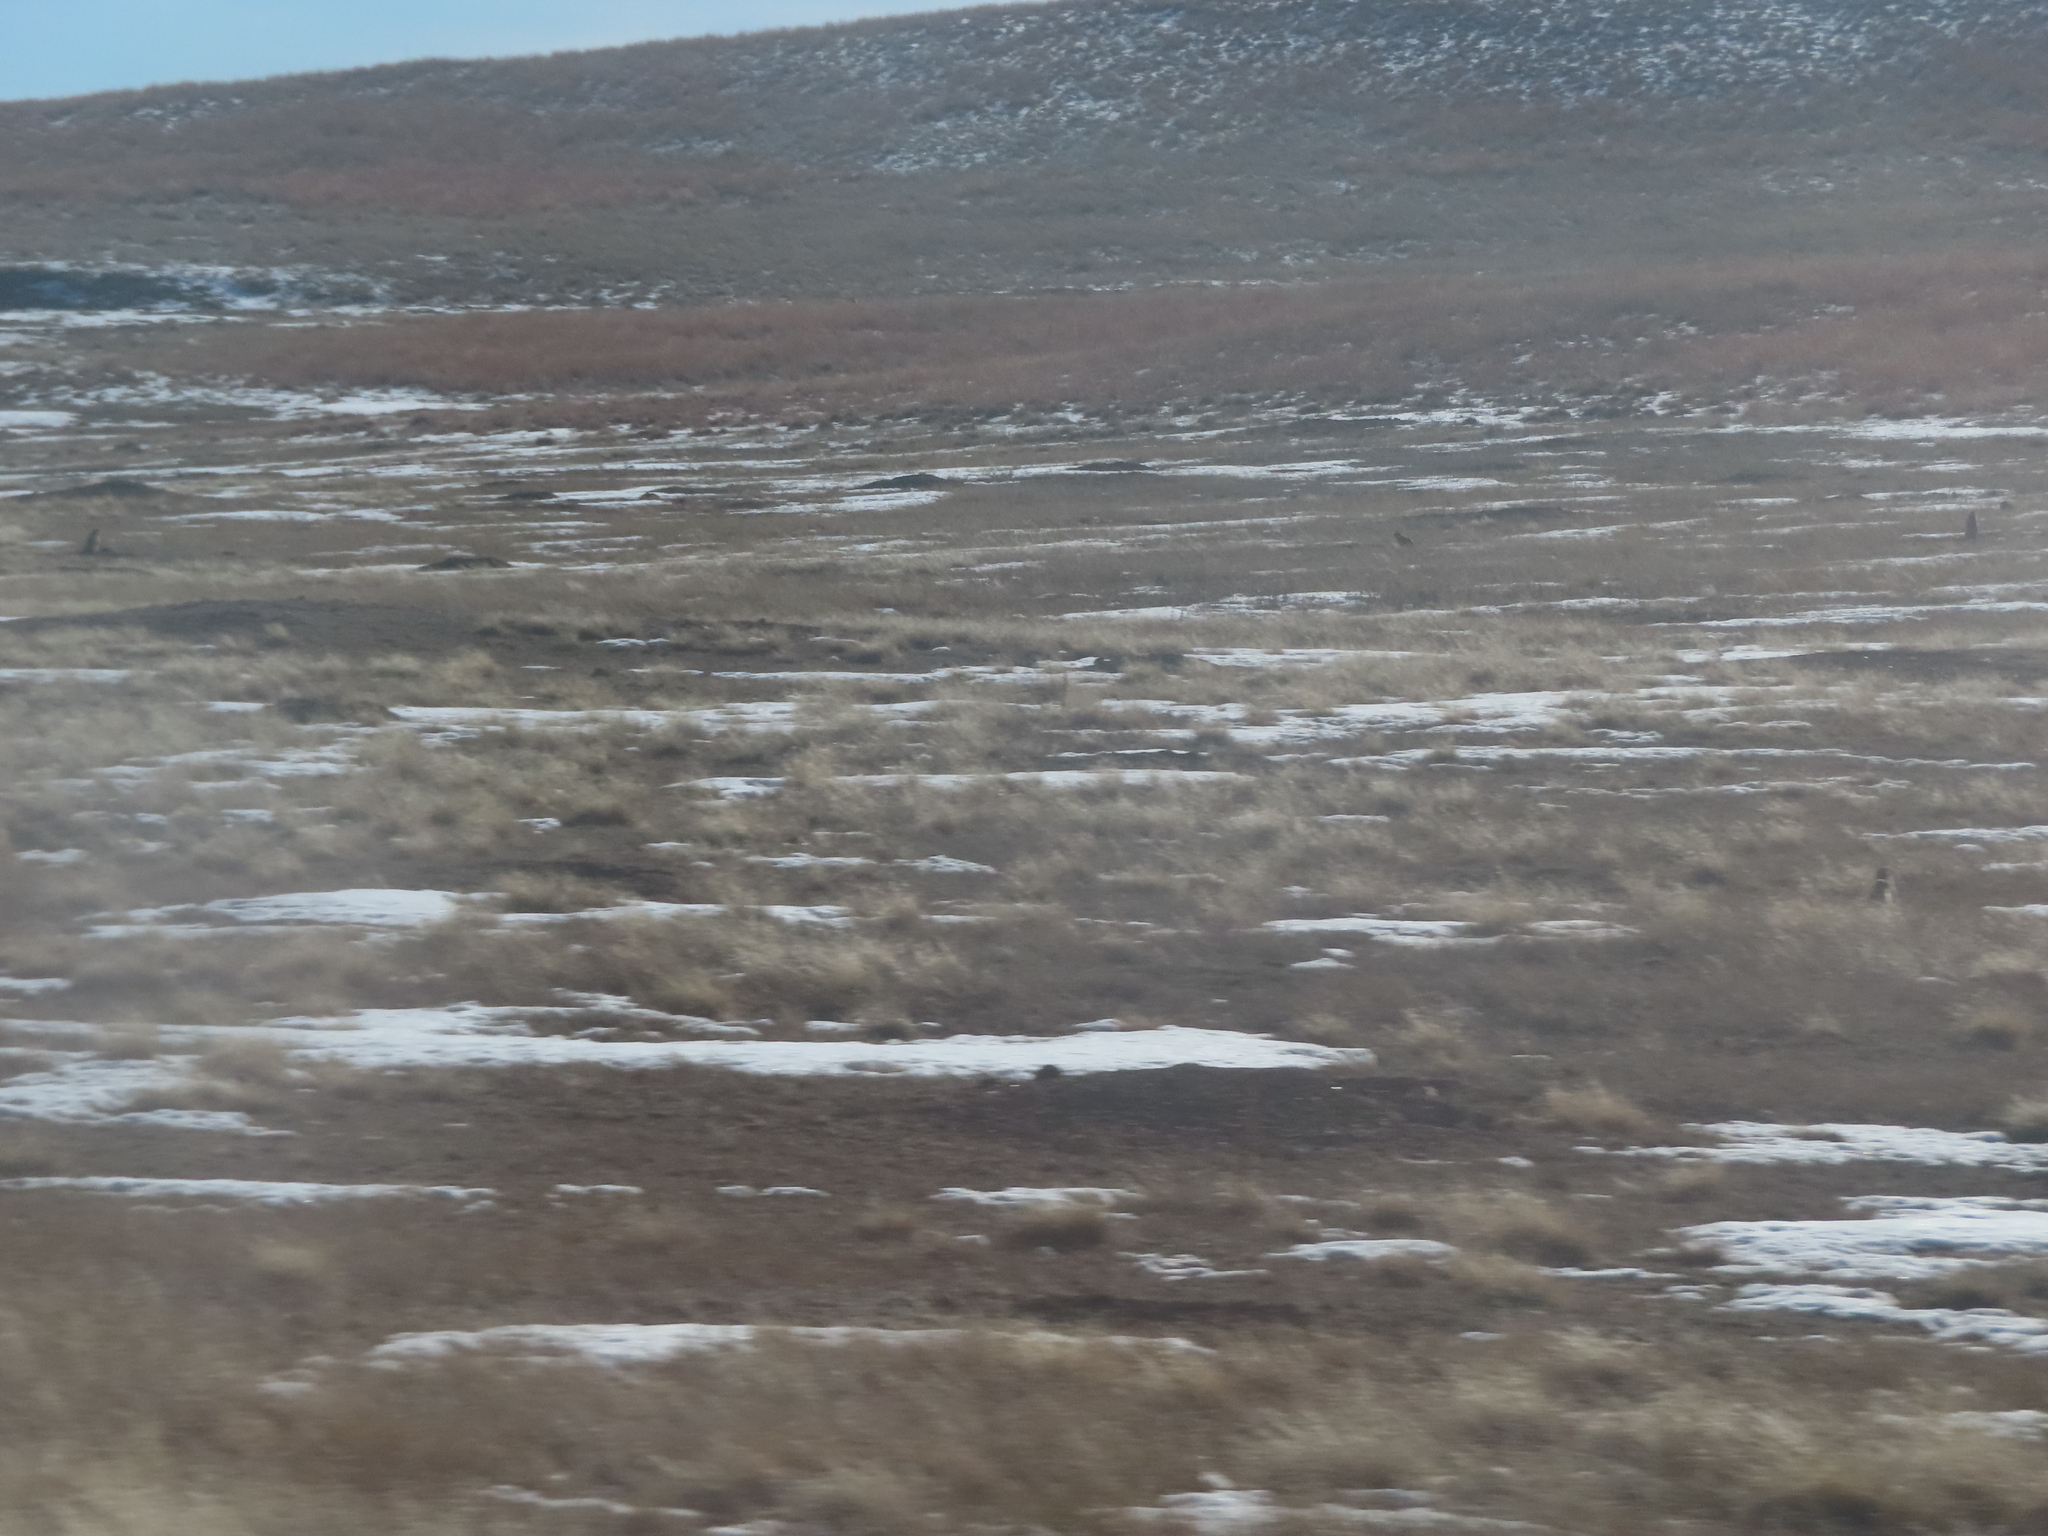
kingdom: Animalia
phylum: Chordata
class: Mammalia
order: Rodentia
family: Sciuridae
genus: Cynomys
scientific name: Cynomys ludovicianus
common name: Black-tailed prairie dog
